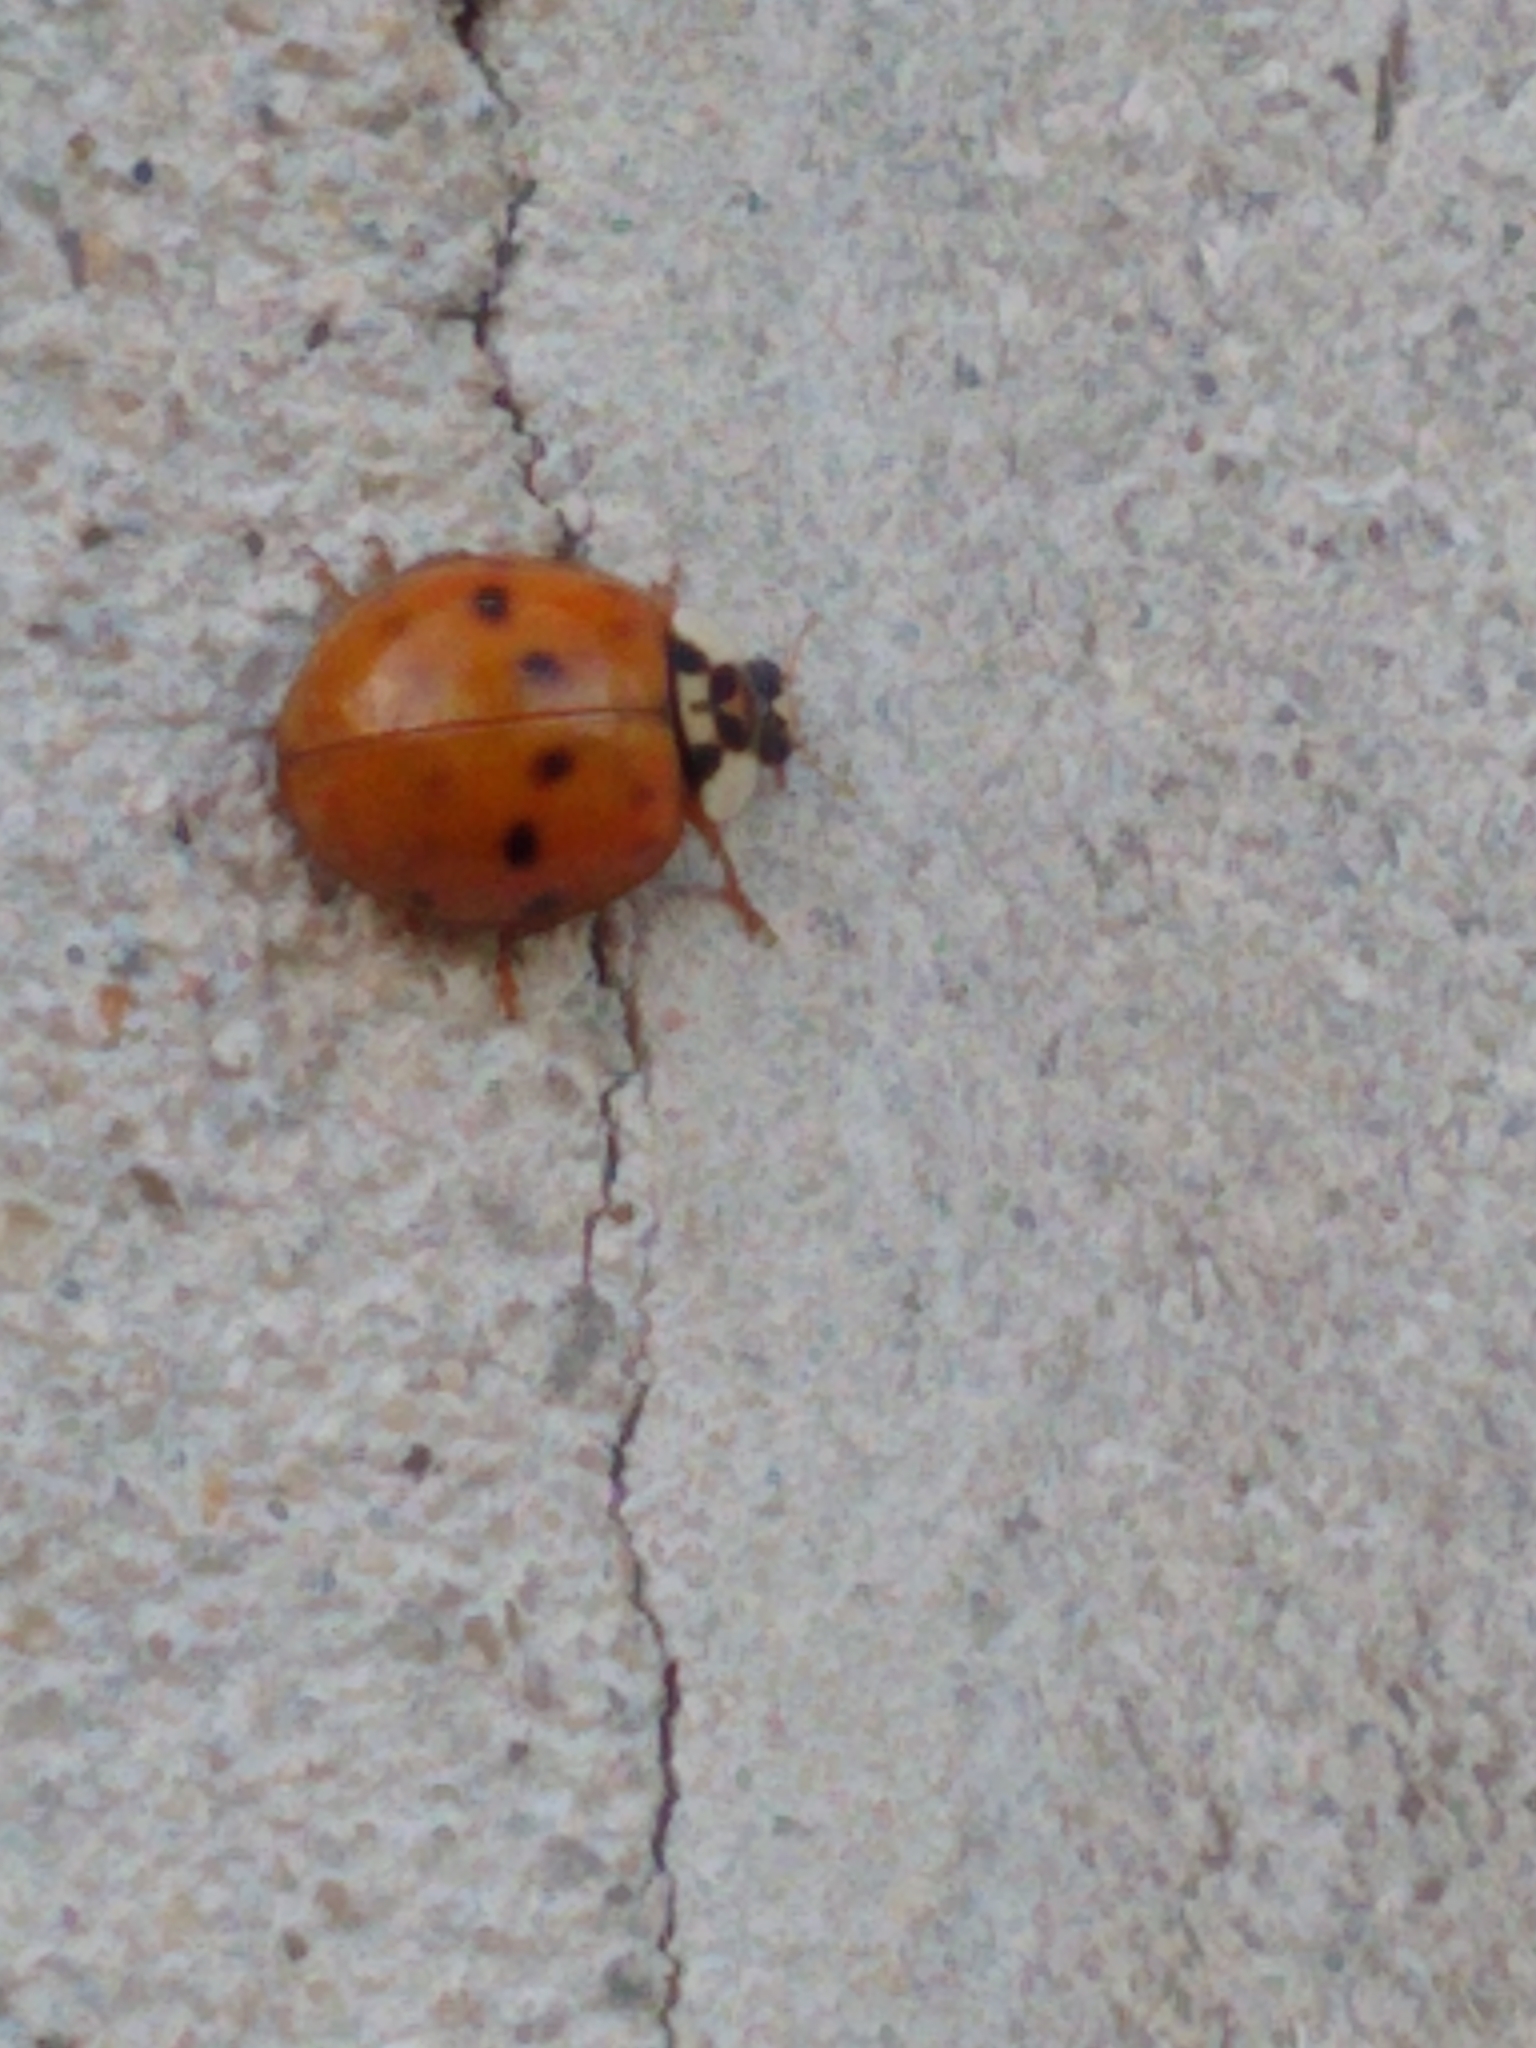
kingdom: Animalia
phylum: Arthropoda
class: Insecta
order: Coleoptera
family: Coccinellidae
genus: Harmonia
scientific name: Harmonia axyridis
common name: Harlequin ladybird
